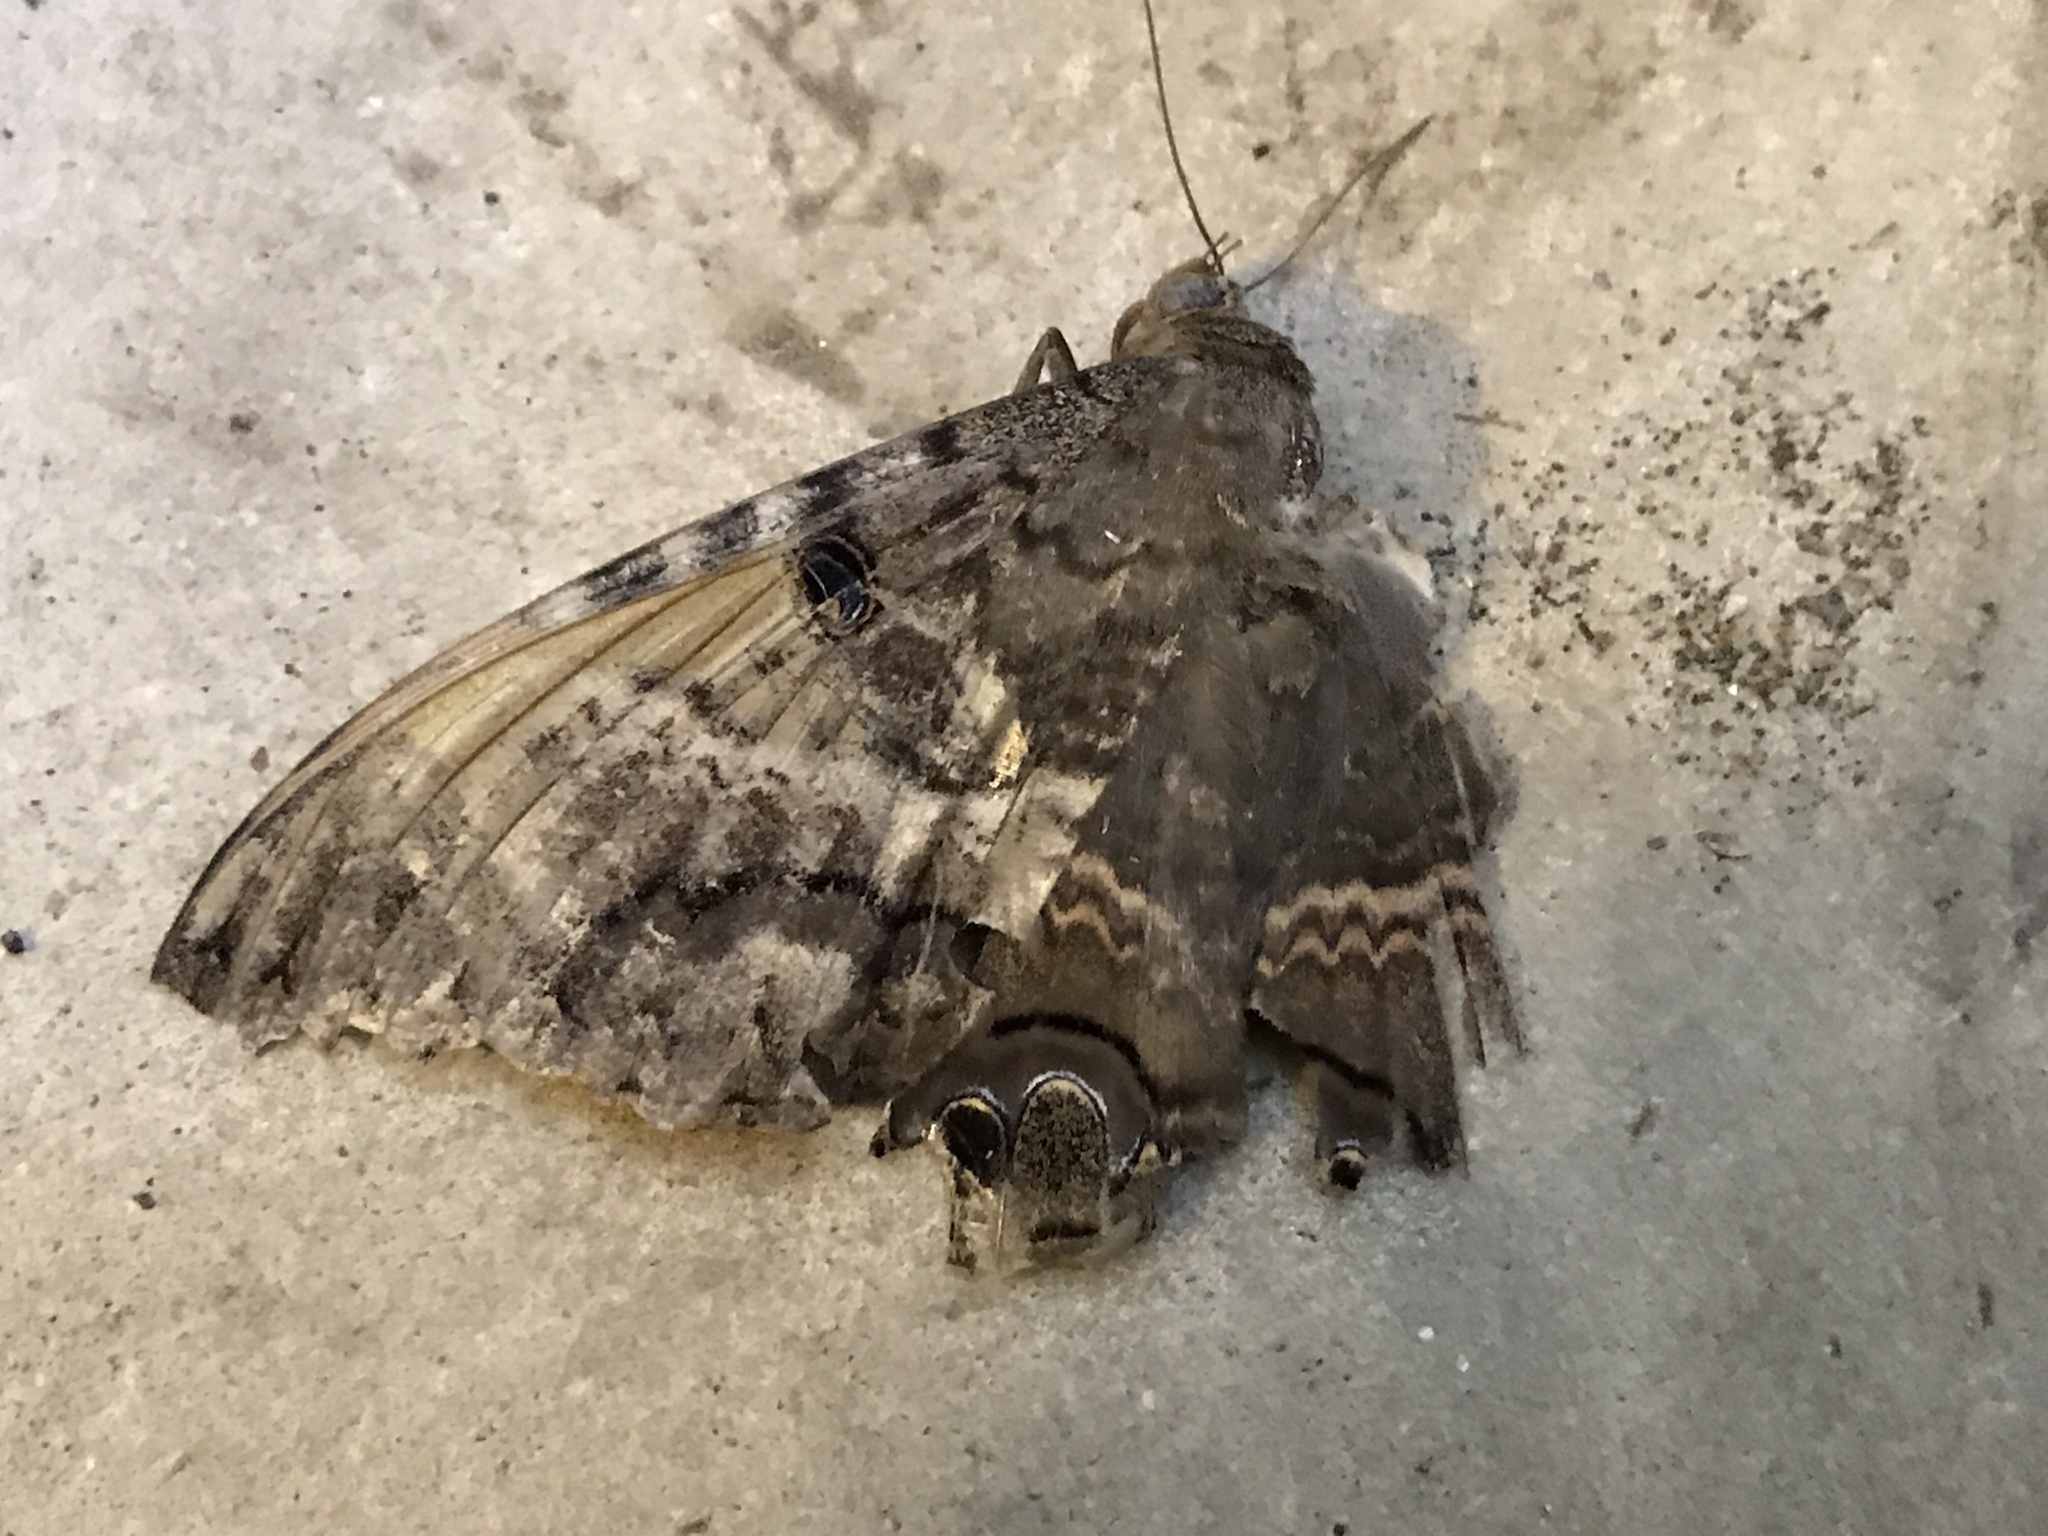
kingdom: Animalia
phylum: Arthropoda
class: Insecta
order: Lepidoptera
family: Erebidae
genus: Ascalapha
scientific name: Ascalapha odorata
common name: Black witch
